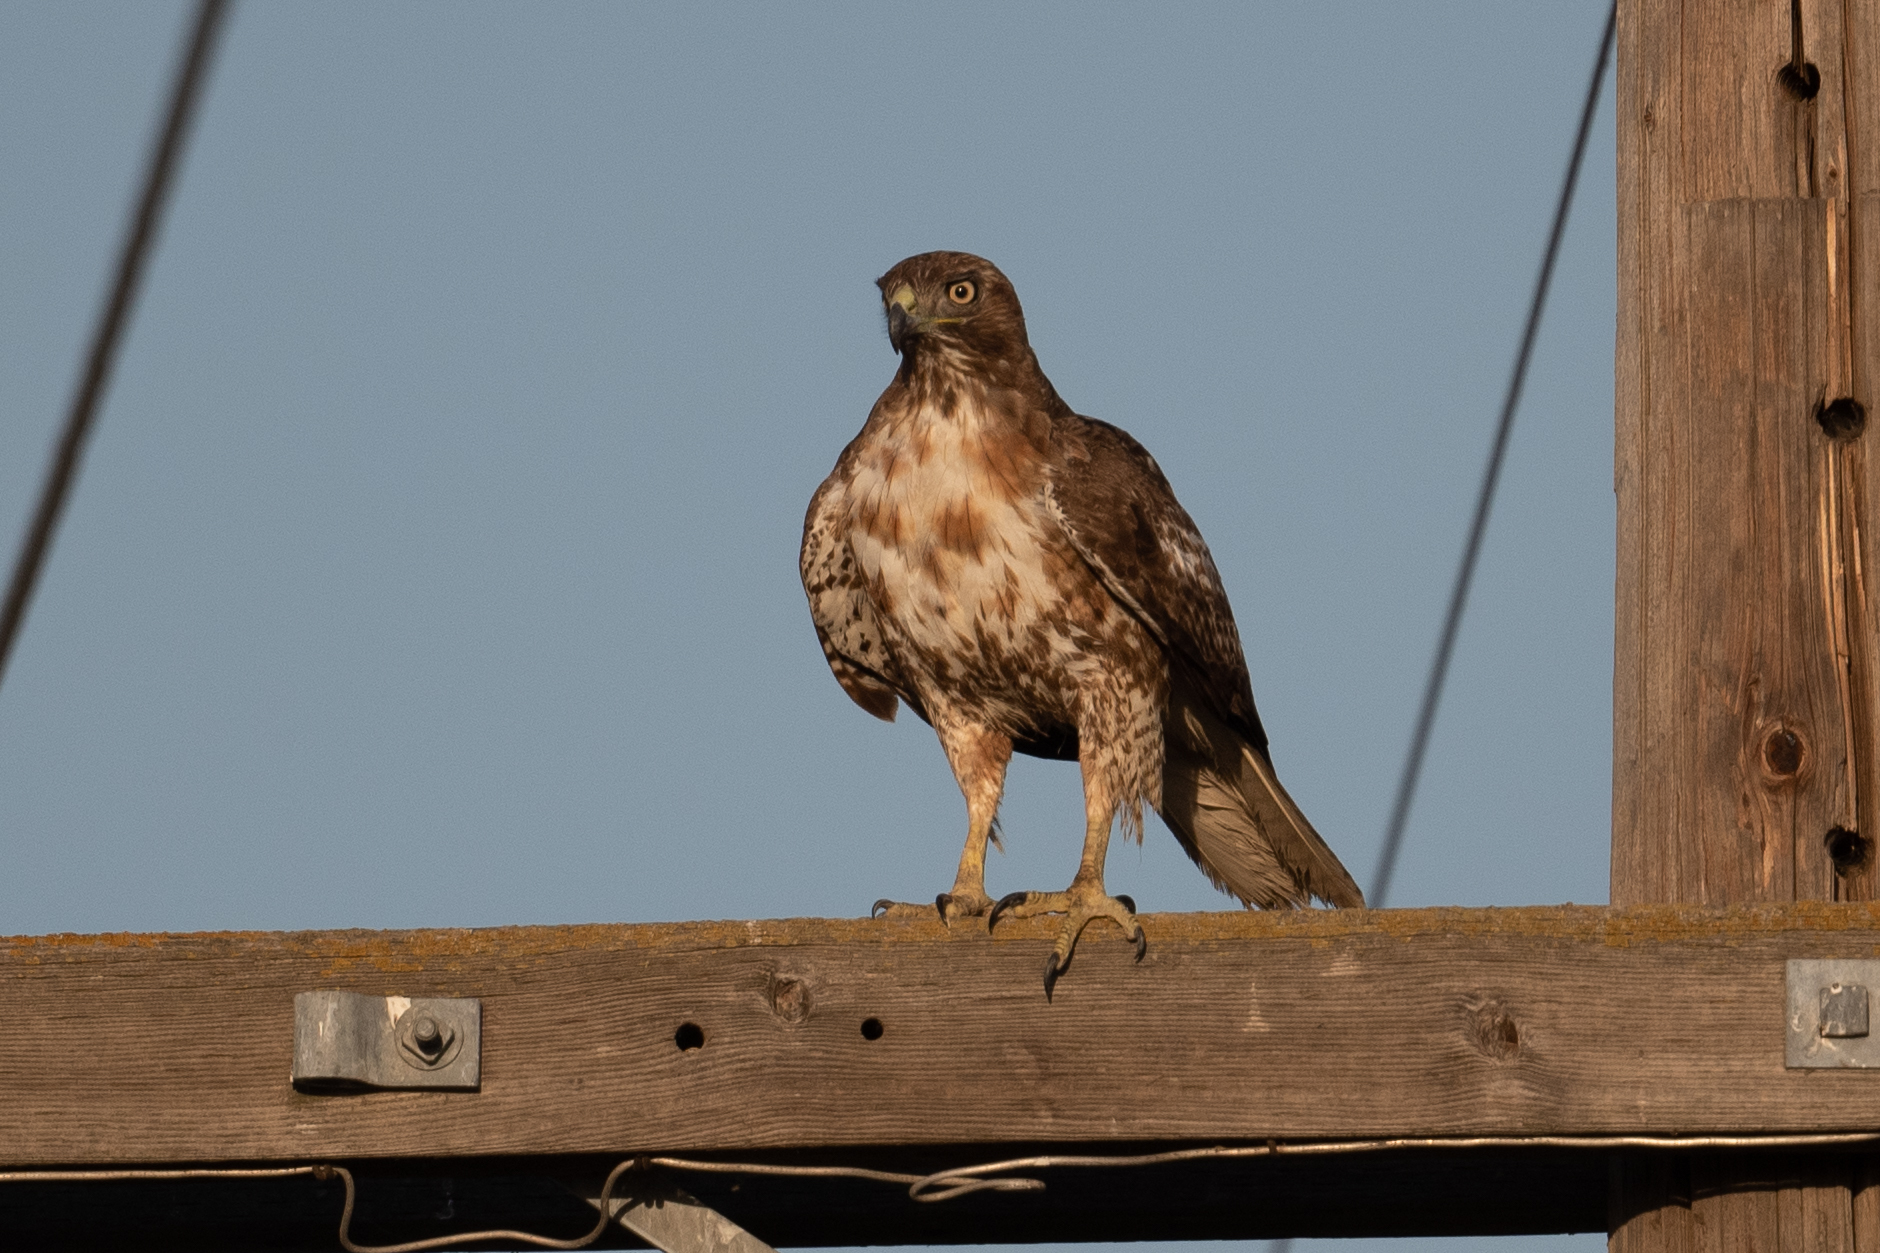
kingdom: Animalia
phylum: Chordata
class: Aves
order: Accipitriformes
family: Accipitridae
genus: Buteo
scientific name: Buteo jamaicensis
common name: Red-tailed hawk
